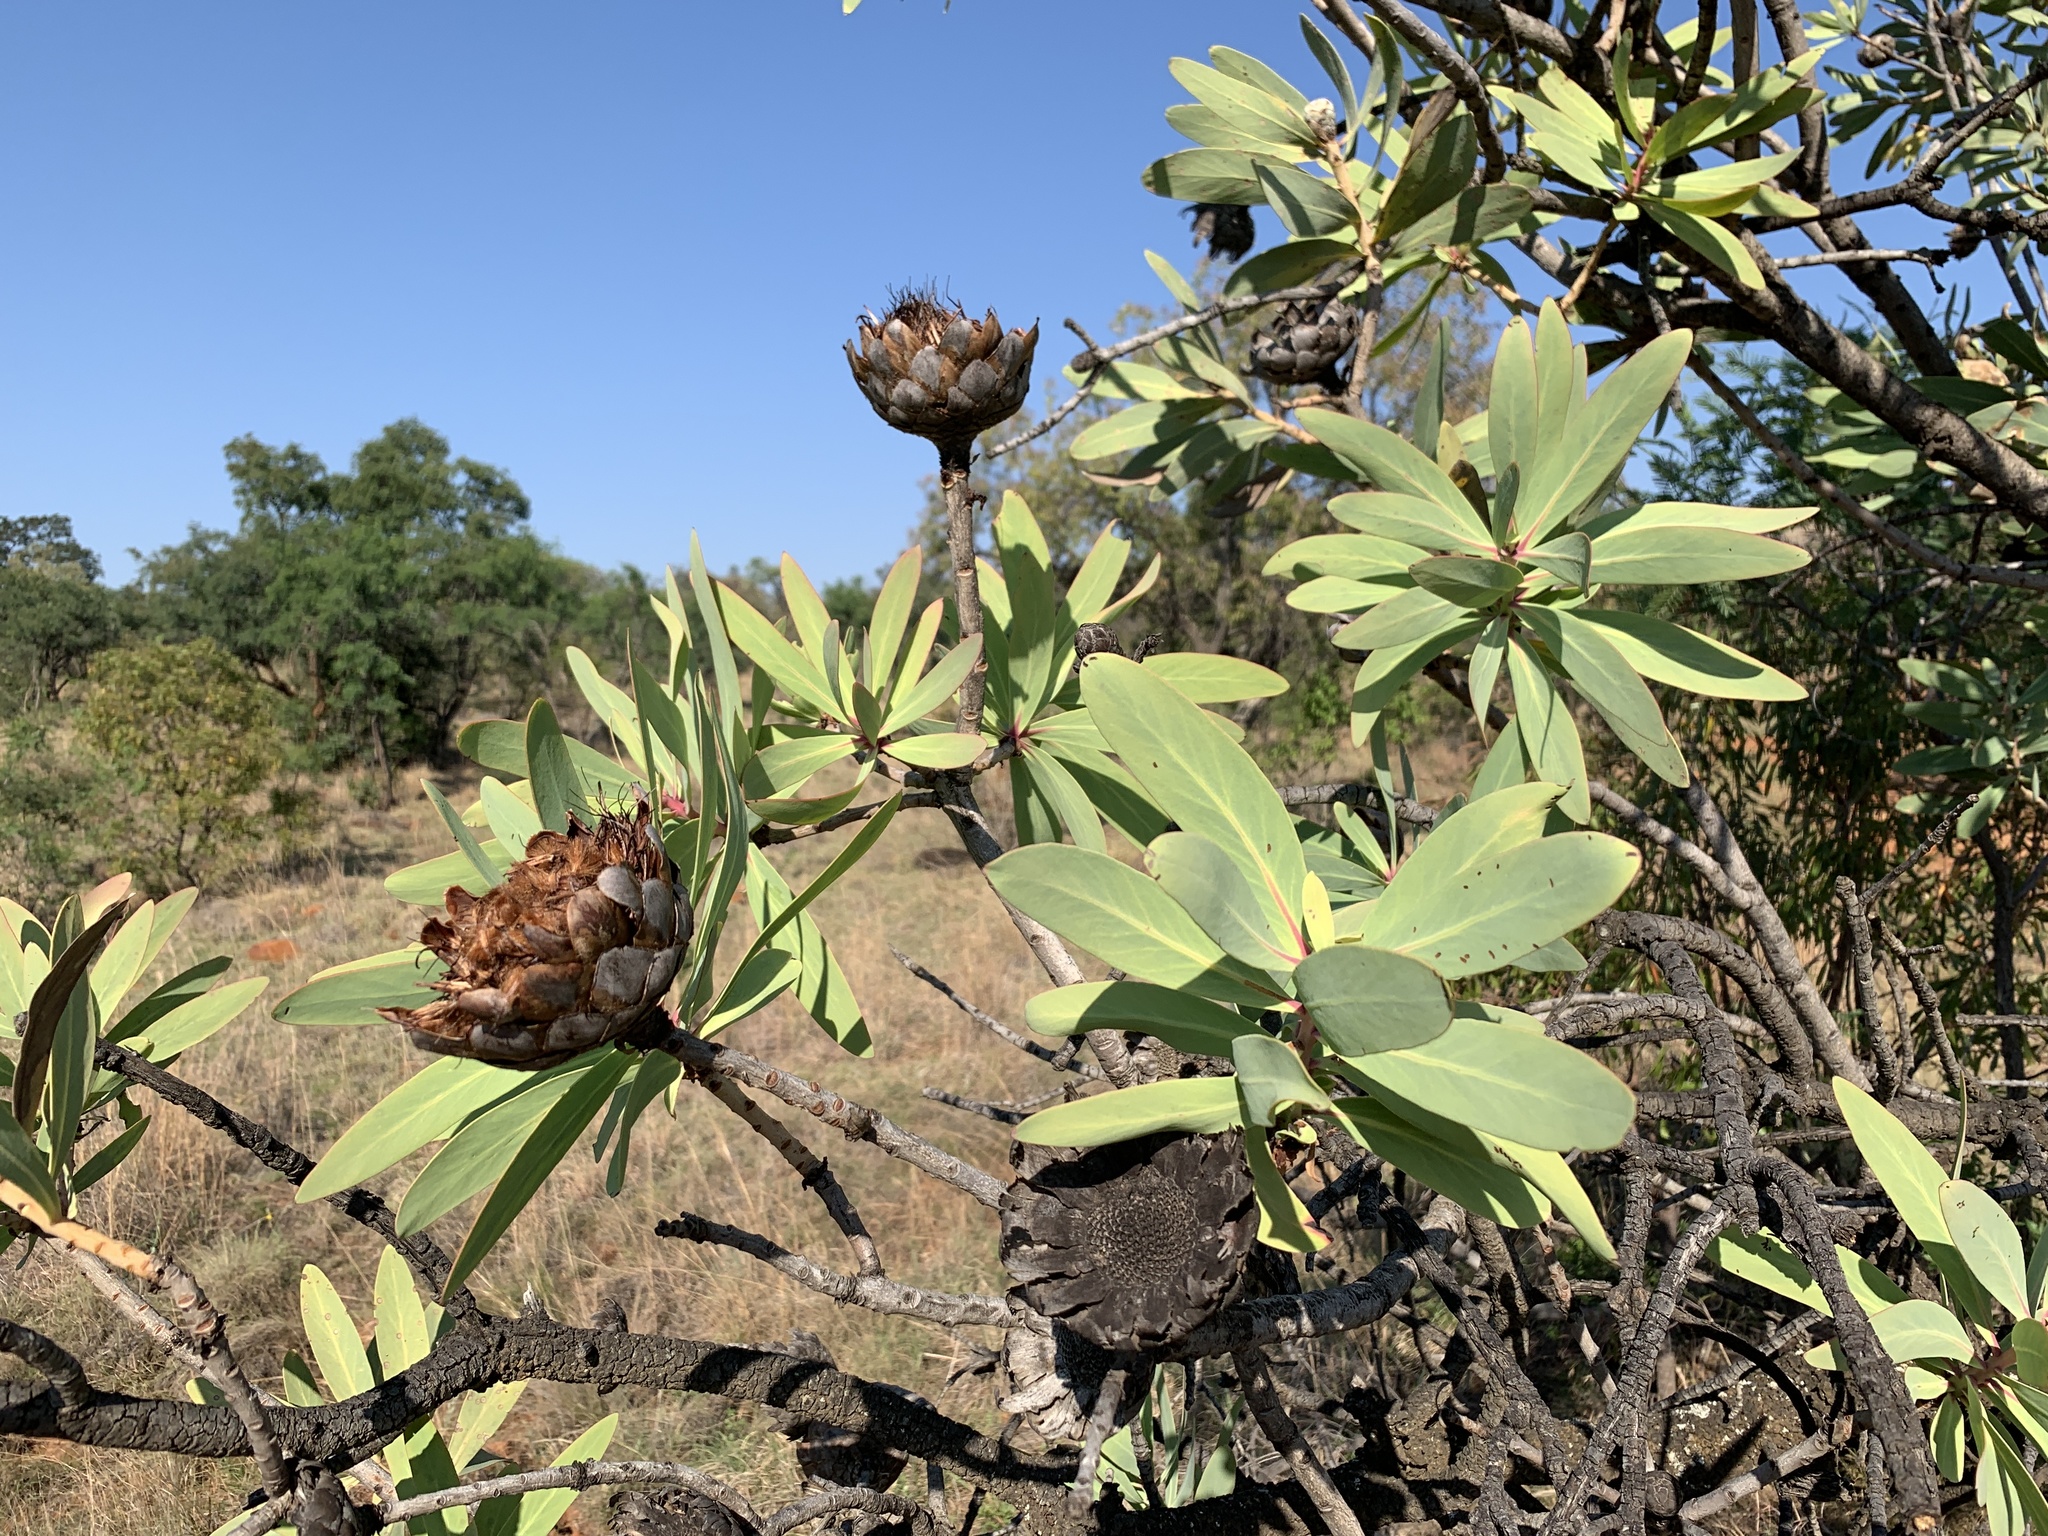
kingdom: Plantae
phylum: Tracheophyta
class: Magnoliopsida
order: Proteales
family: Proteaceae
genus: Protea
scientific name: Protea caffra
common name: Common sugarbush
